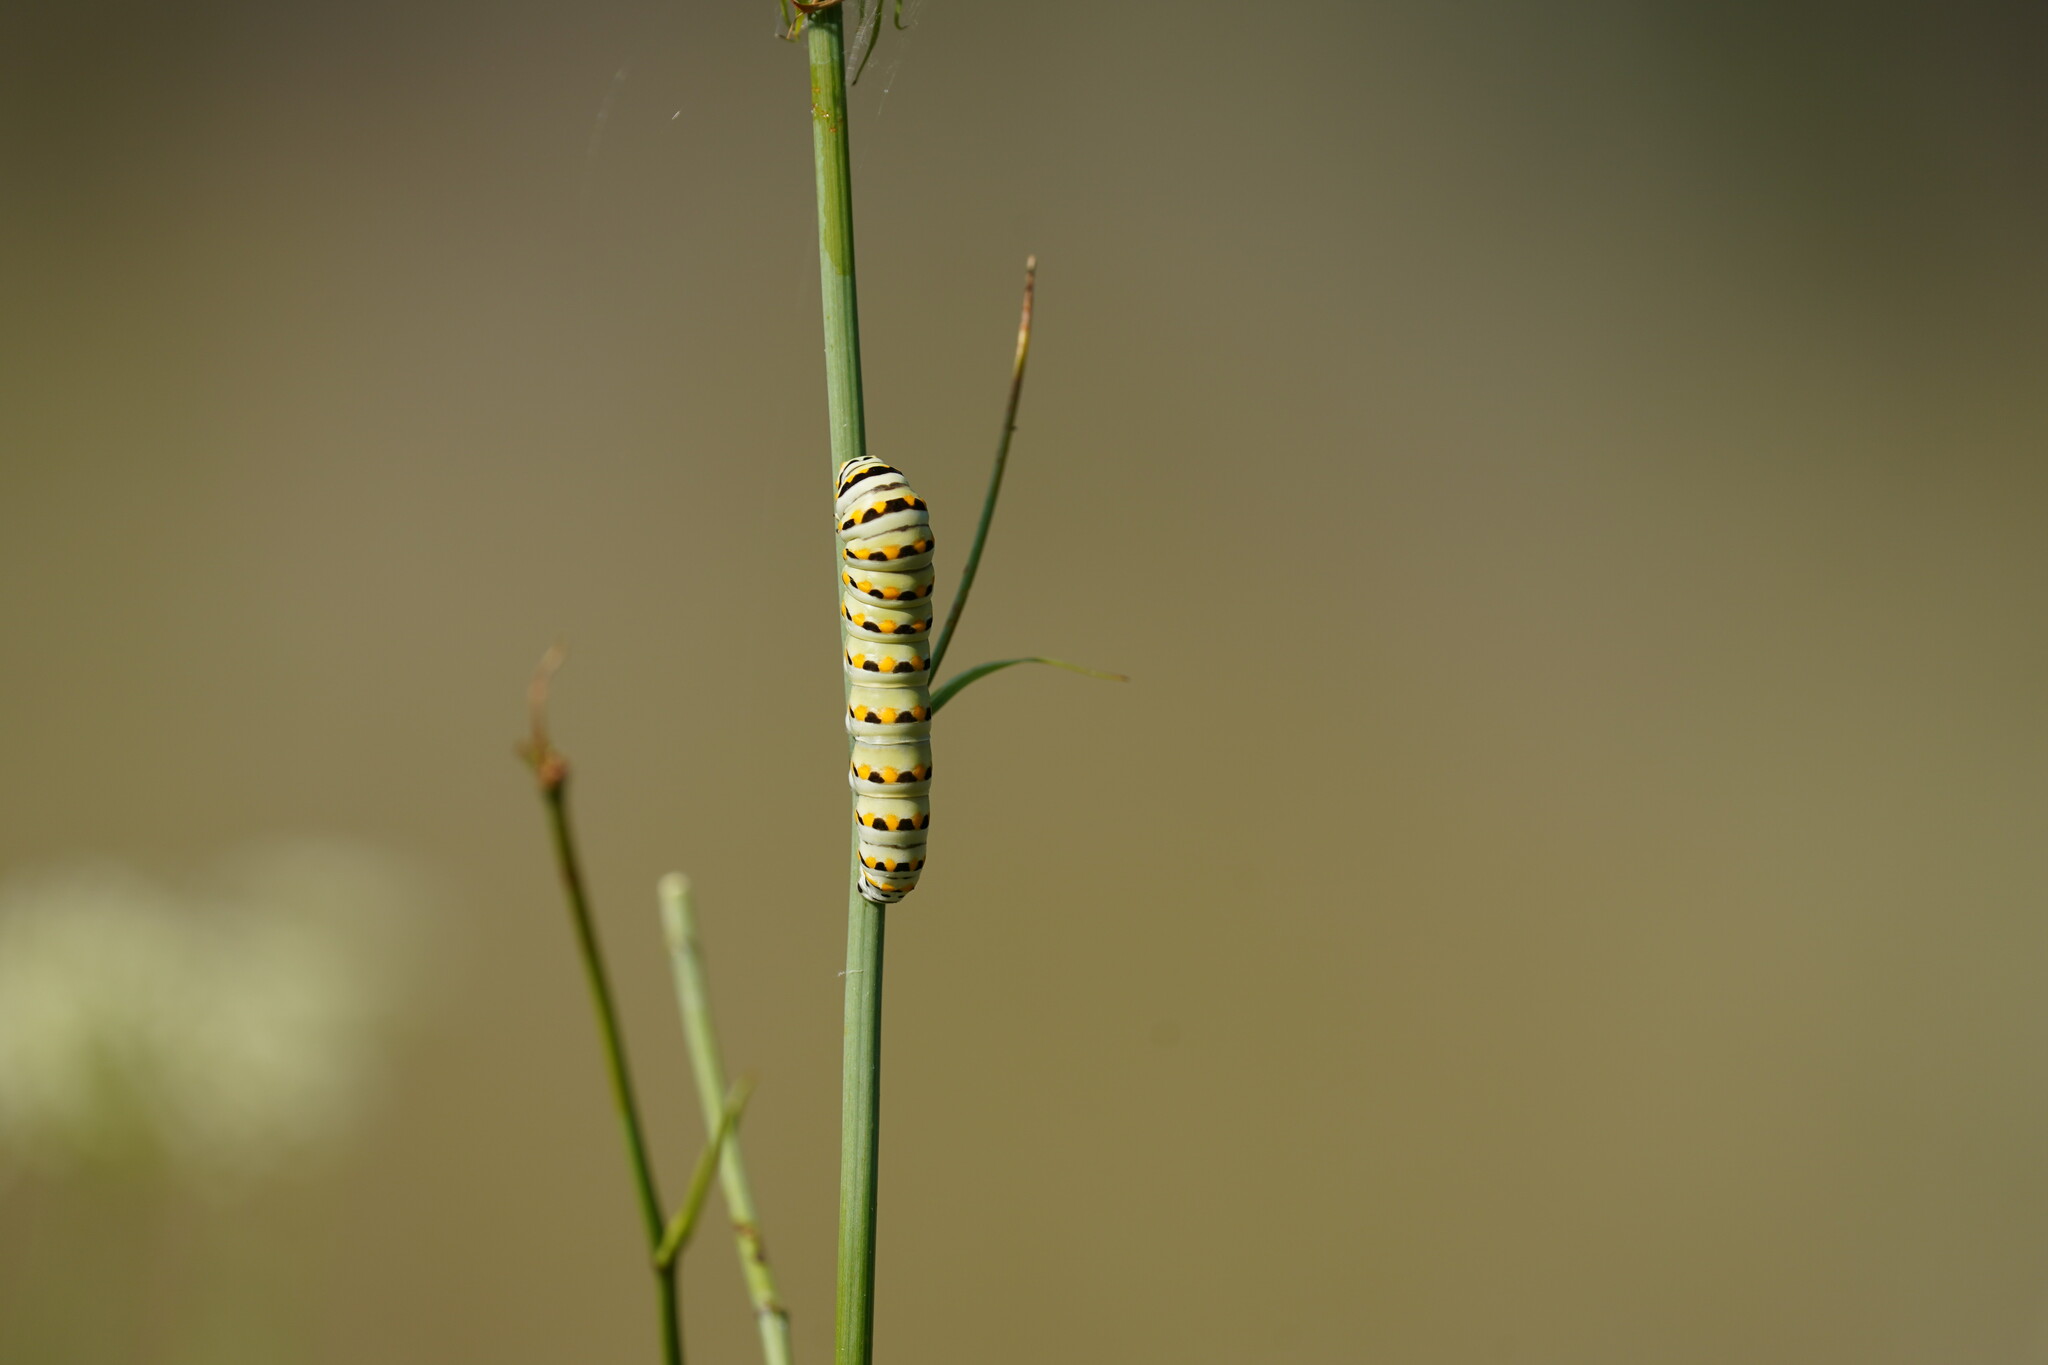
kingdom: Animalia
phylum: Arthropoda
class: Insecta
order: Lepidoptera
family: Papilionidae
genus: Papilio
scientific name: Papilio polyxenes
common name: Black swallowtail
